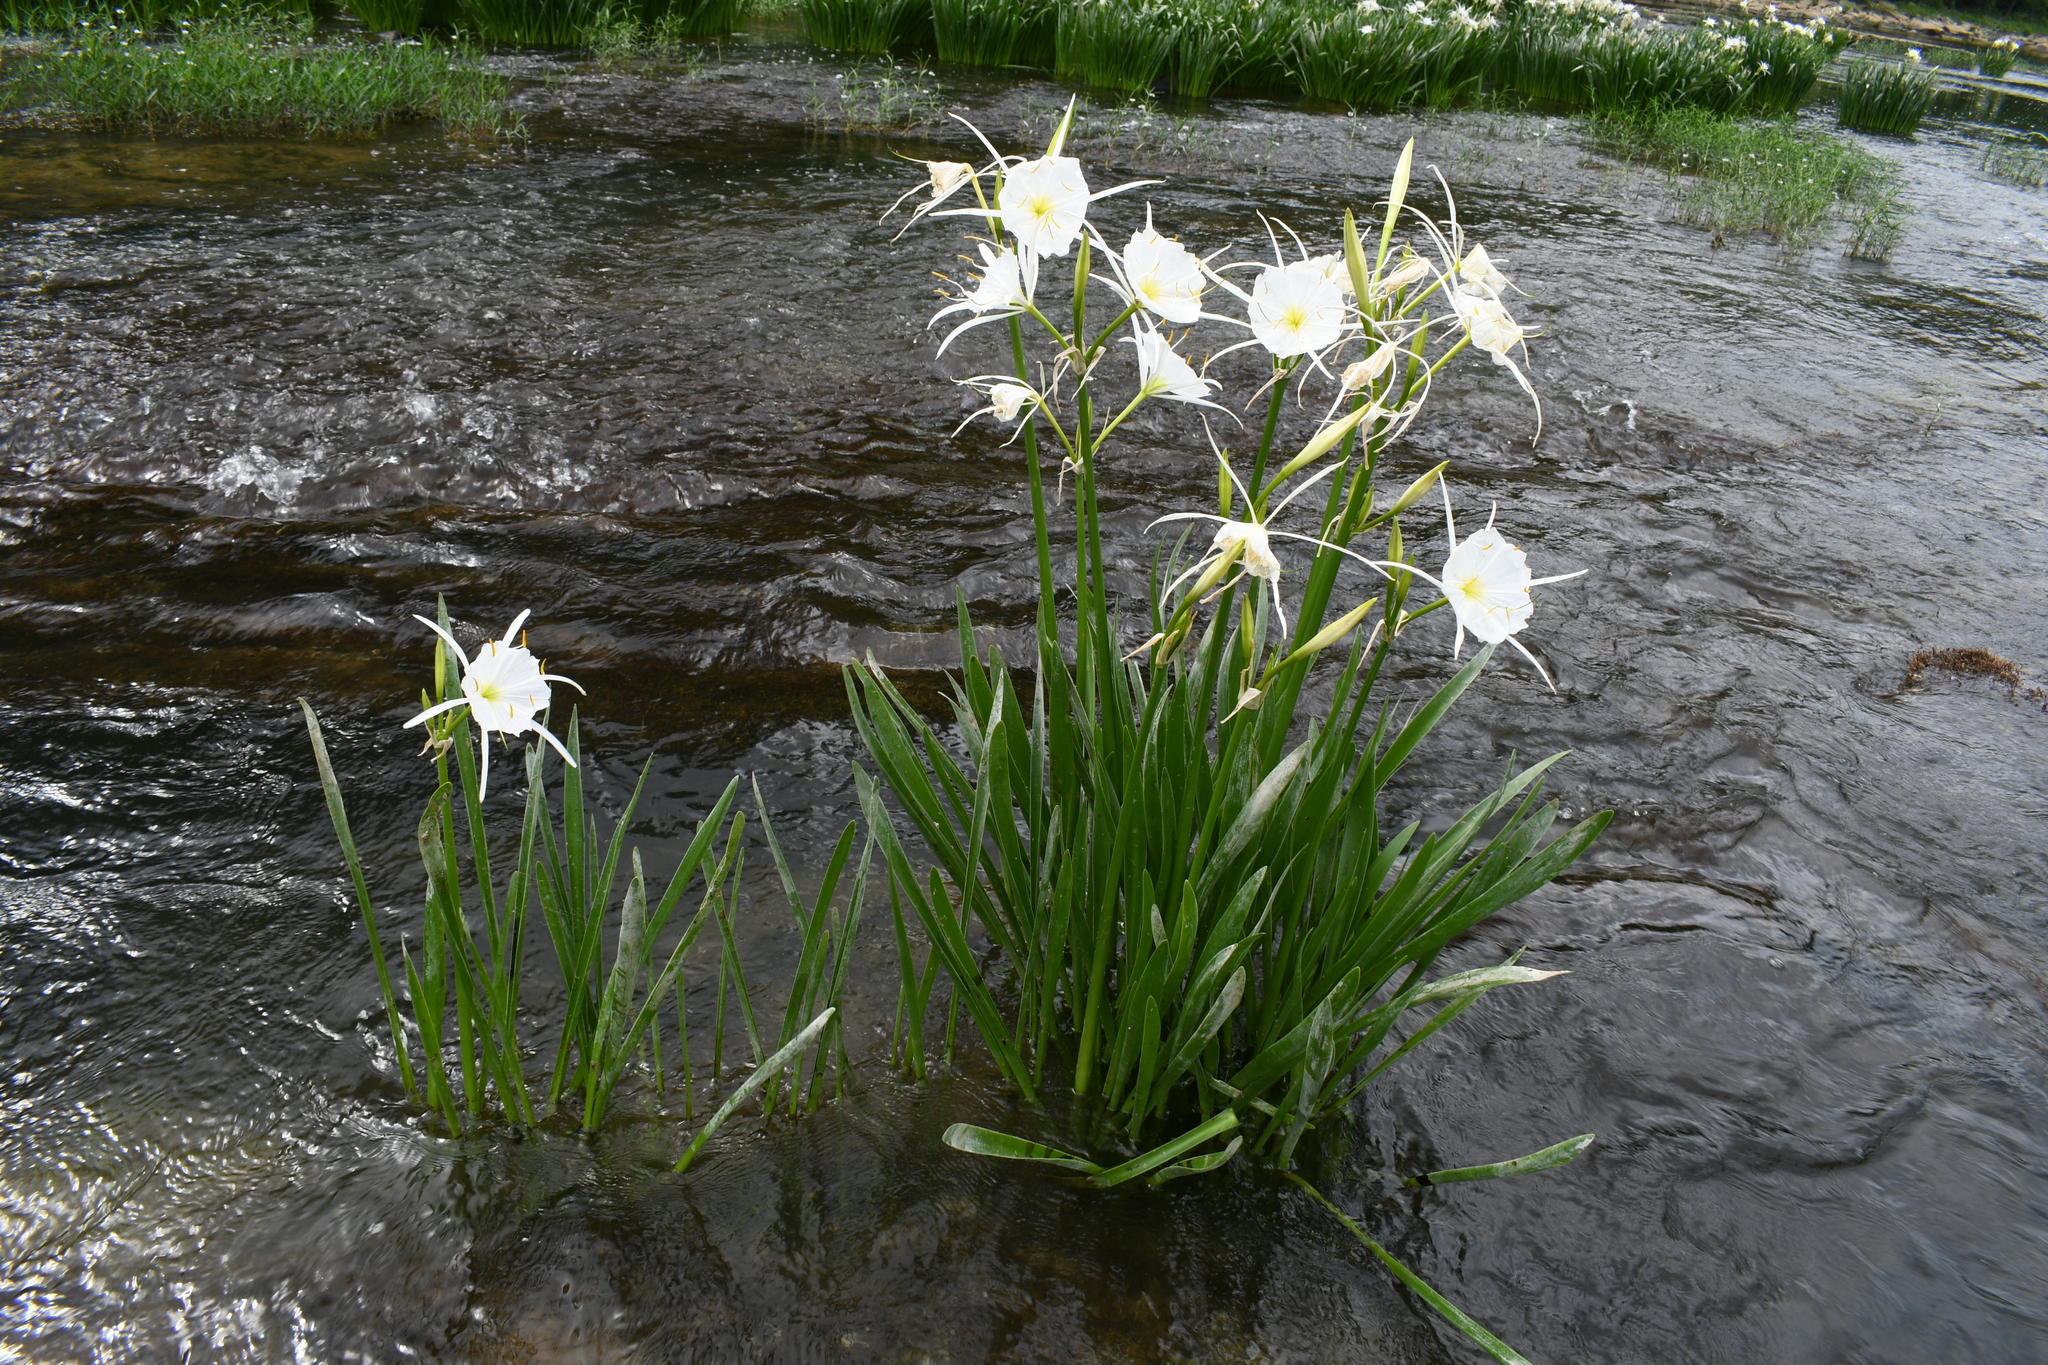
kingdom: Plantae
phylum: Tracheophyta
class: Liliopsida
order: Asparagales
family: Amaryllidaceae
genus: Hymenocallis
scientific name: Hymenocallis coronaria
